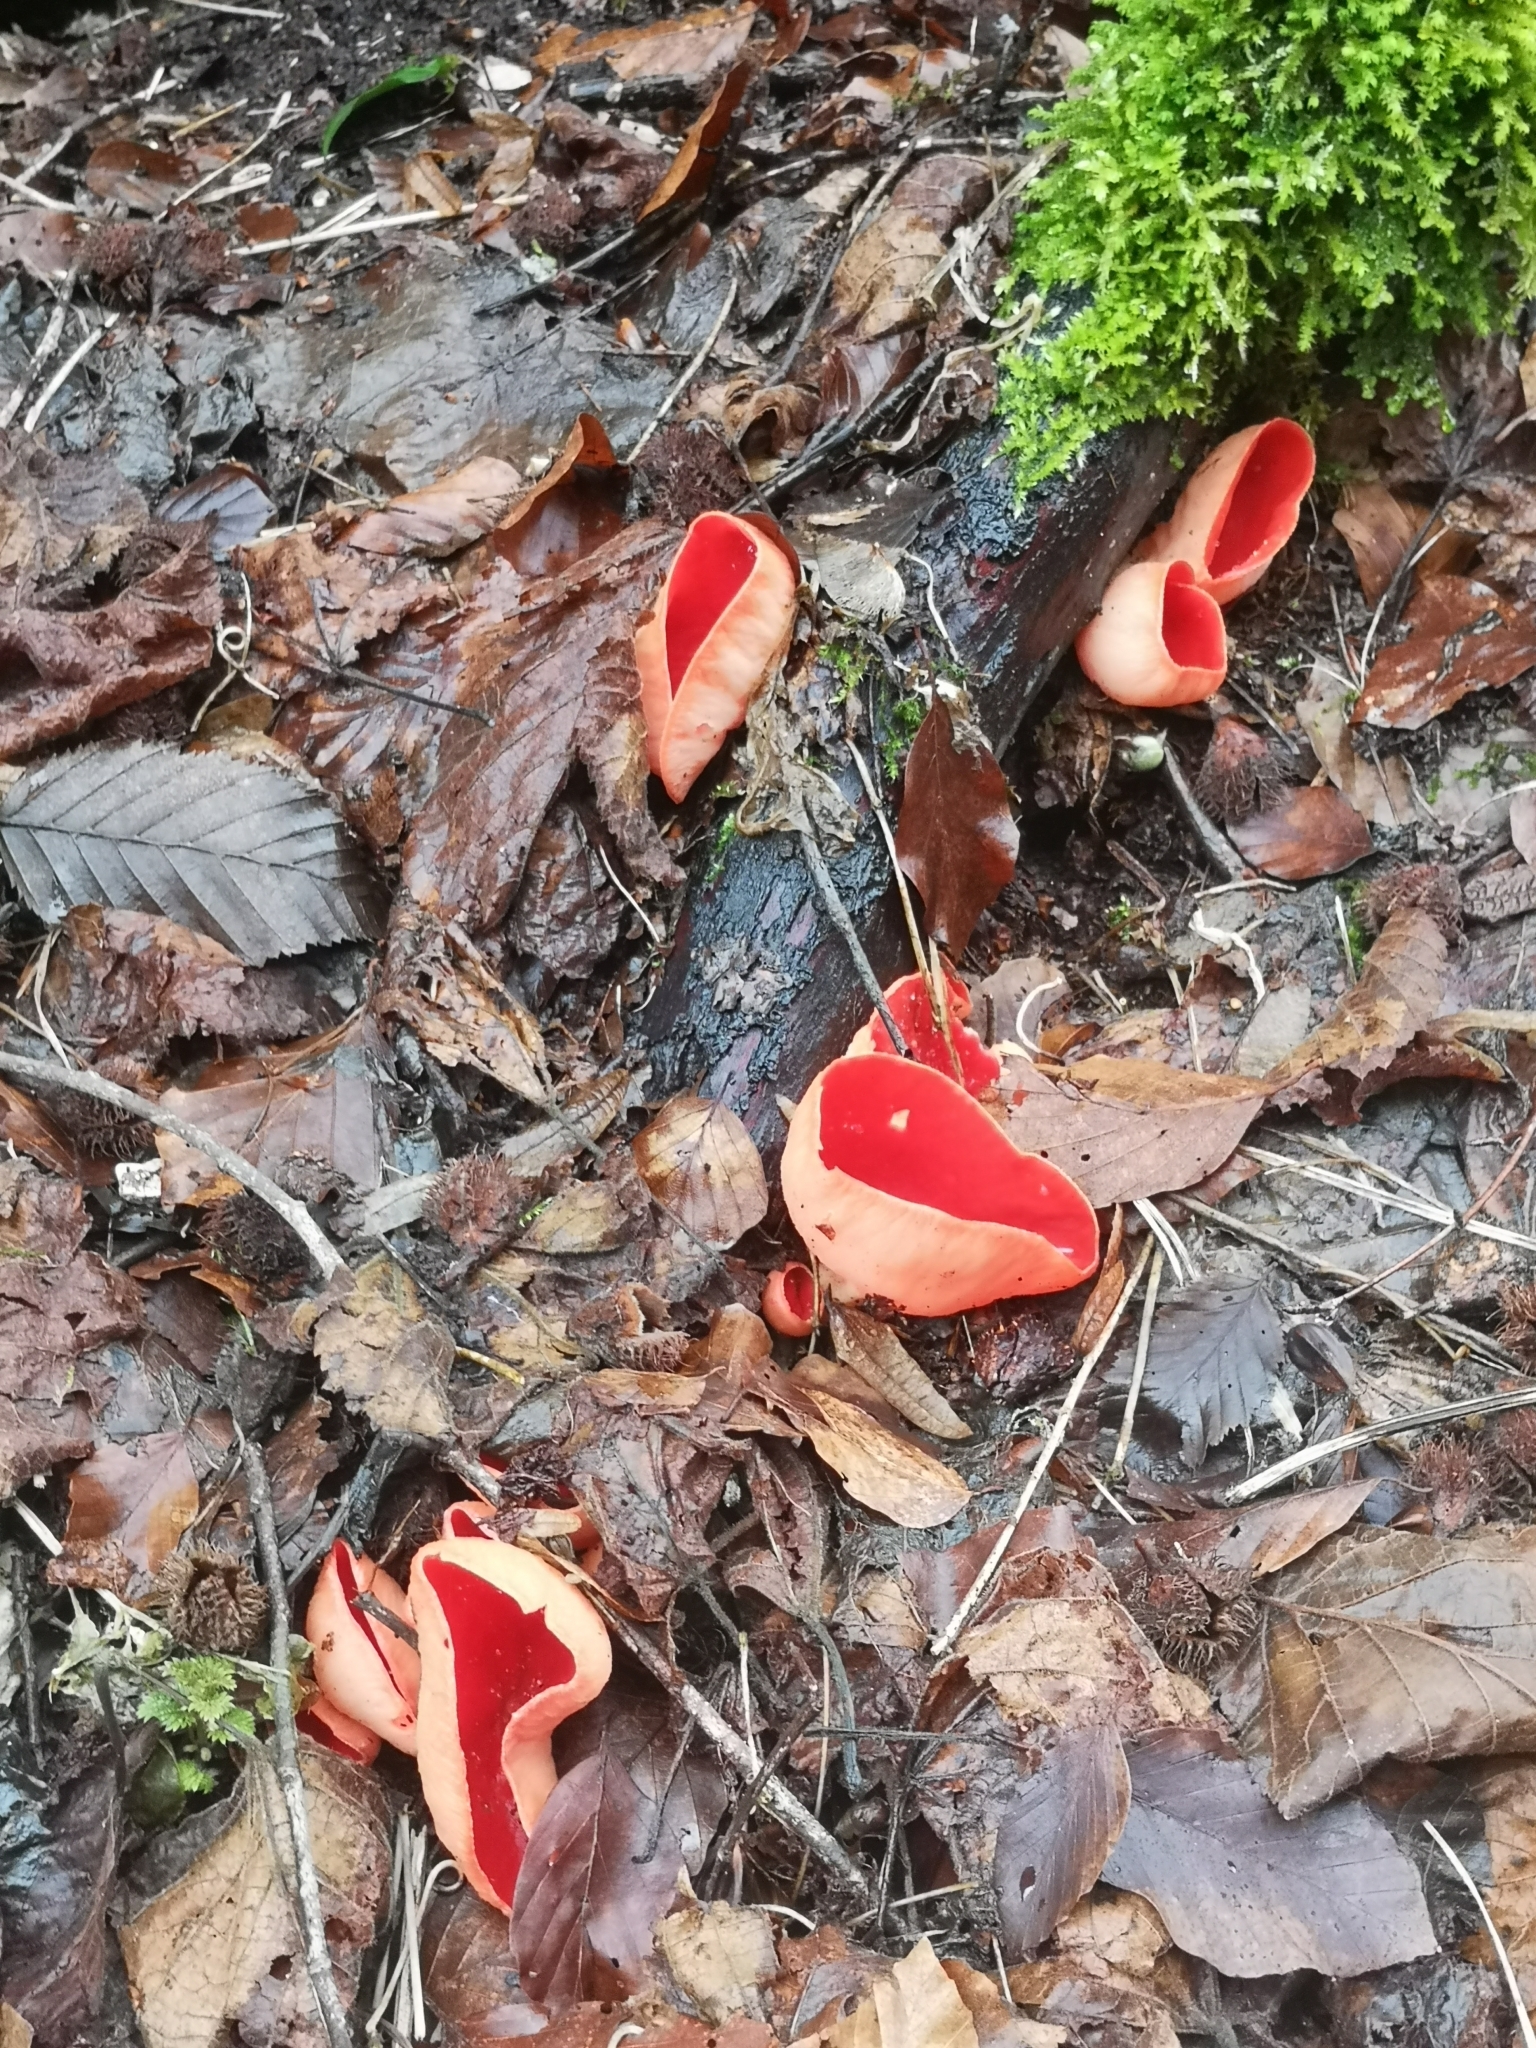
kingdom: Fungi
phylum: Ascomycota
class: Pezizomycetes
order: Pezizales
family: Sarcoscyphaceae
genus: Sarcoscypha
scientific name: Sarcoscypha
